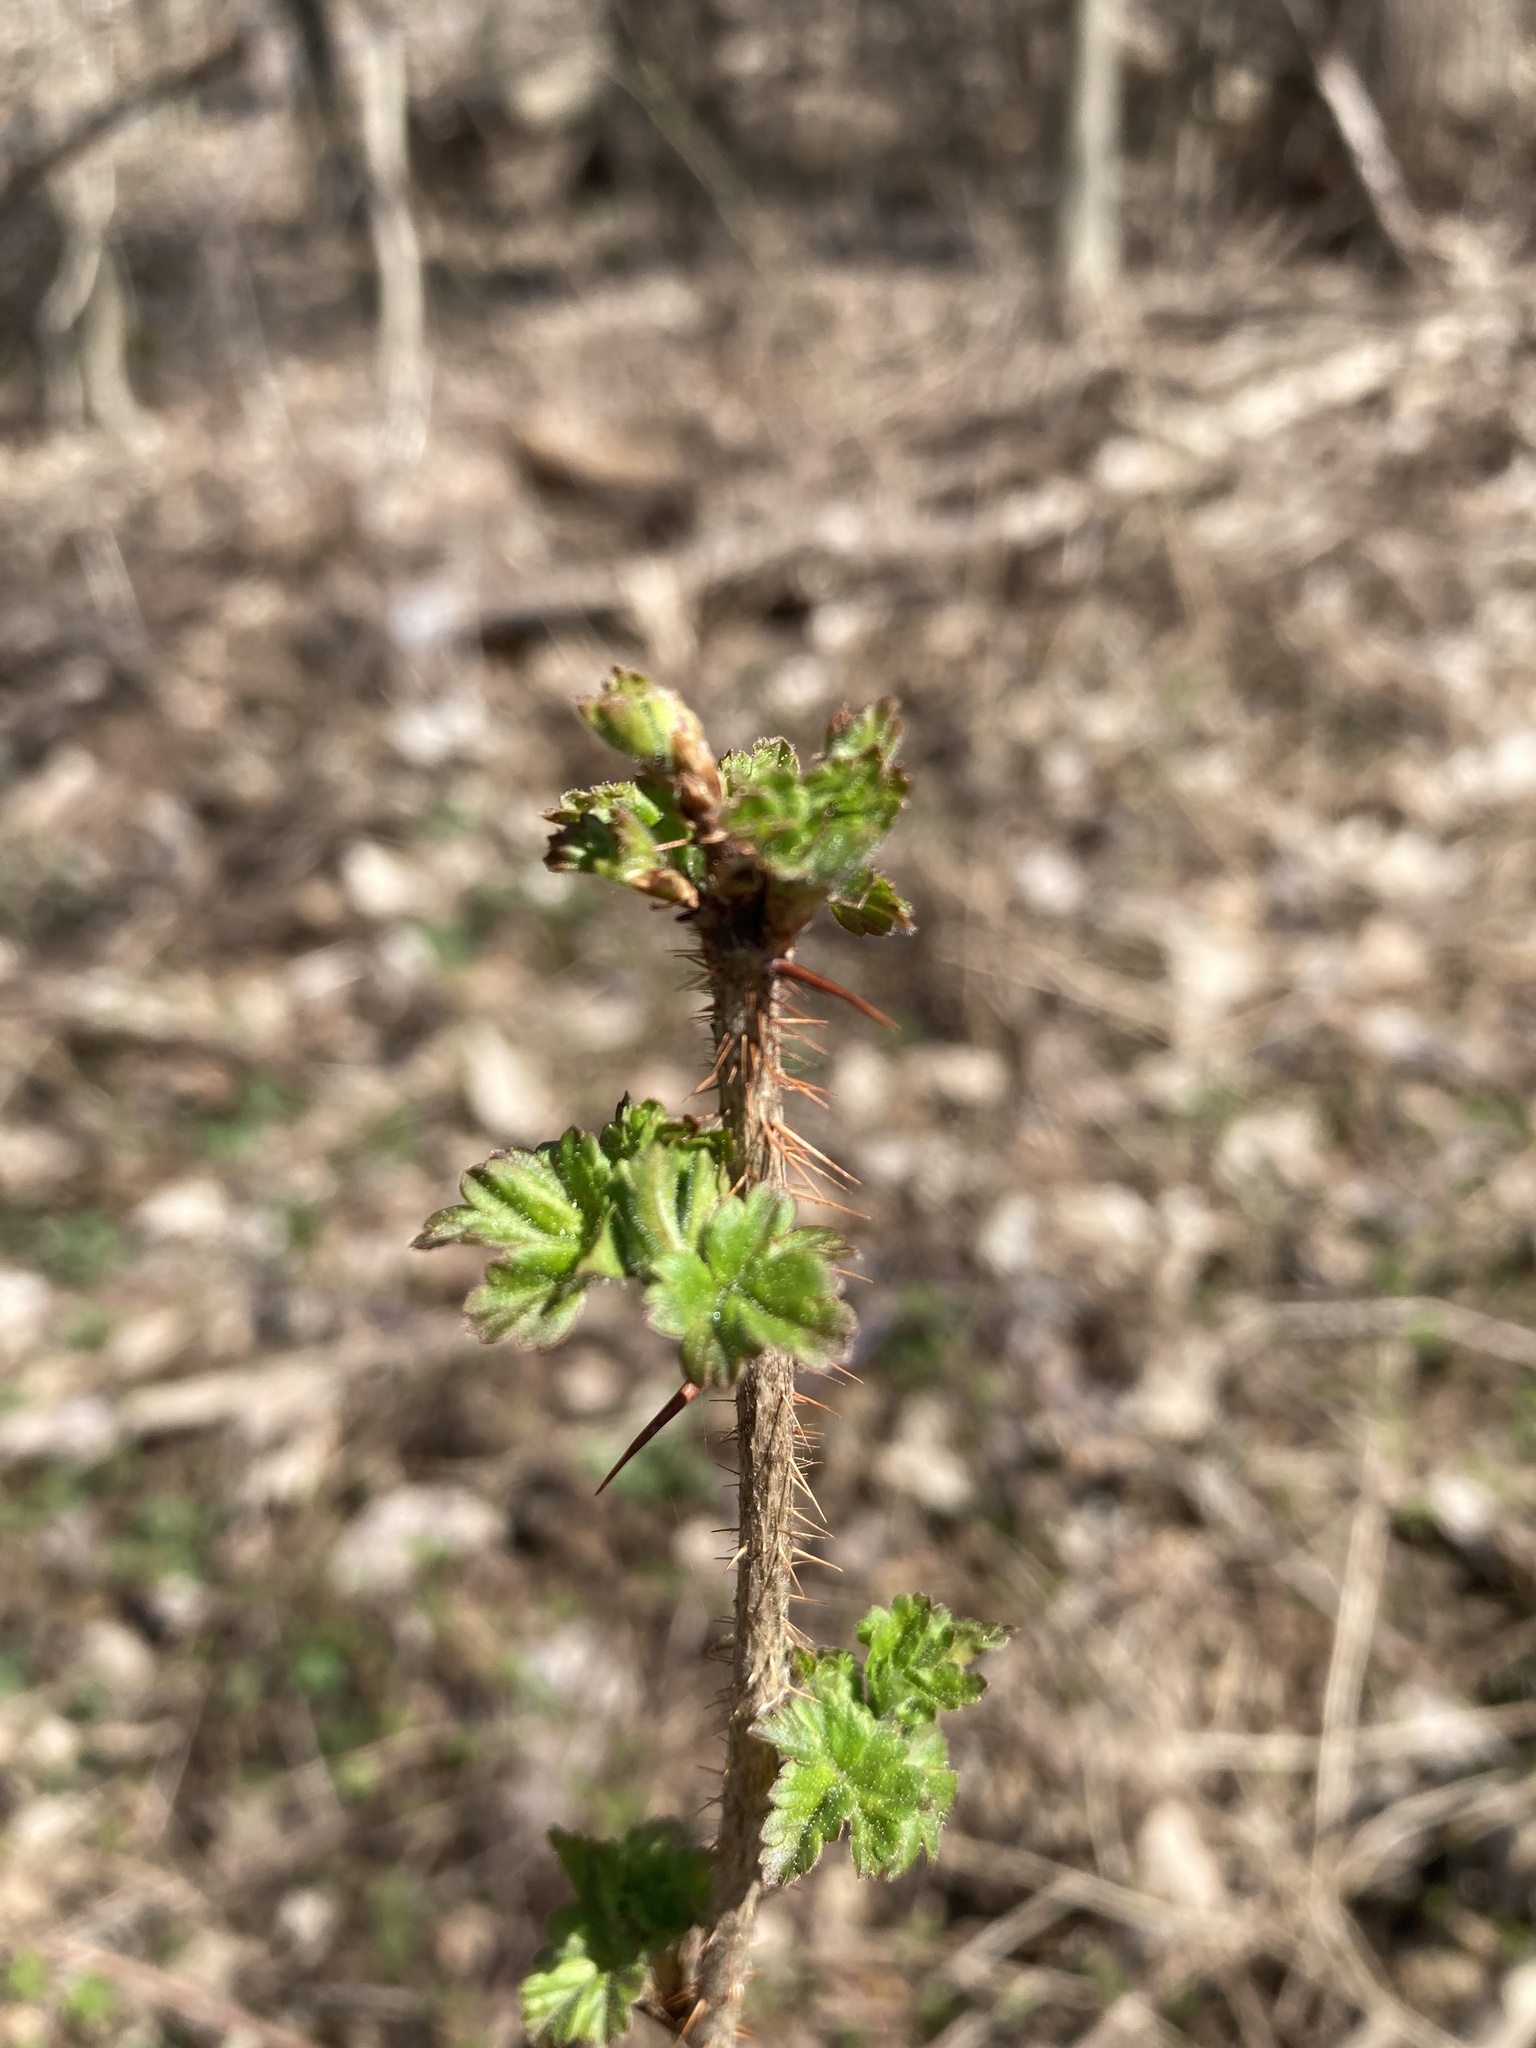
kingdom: Plantae
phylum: Tracheophyta
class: Magnoliopsida
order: Saxifragales
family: Grossulariaceae
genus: Ribes
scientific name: Ribes cynosbati
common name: American gooseberry
